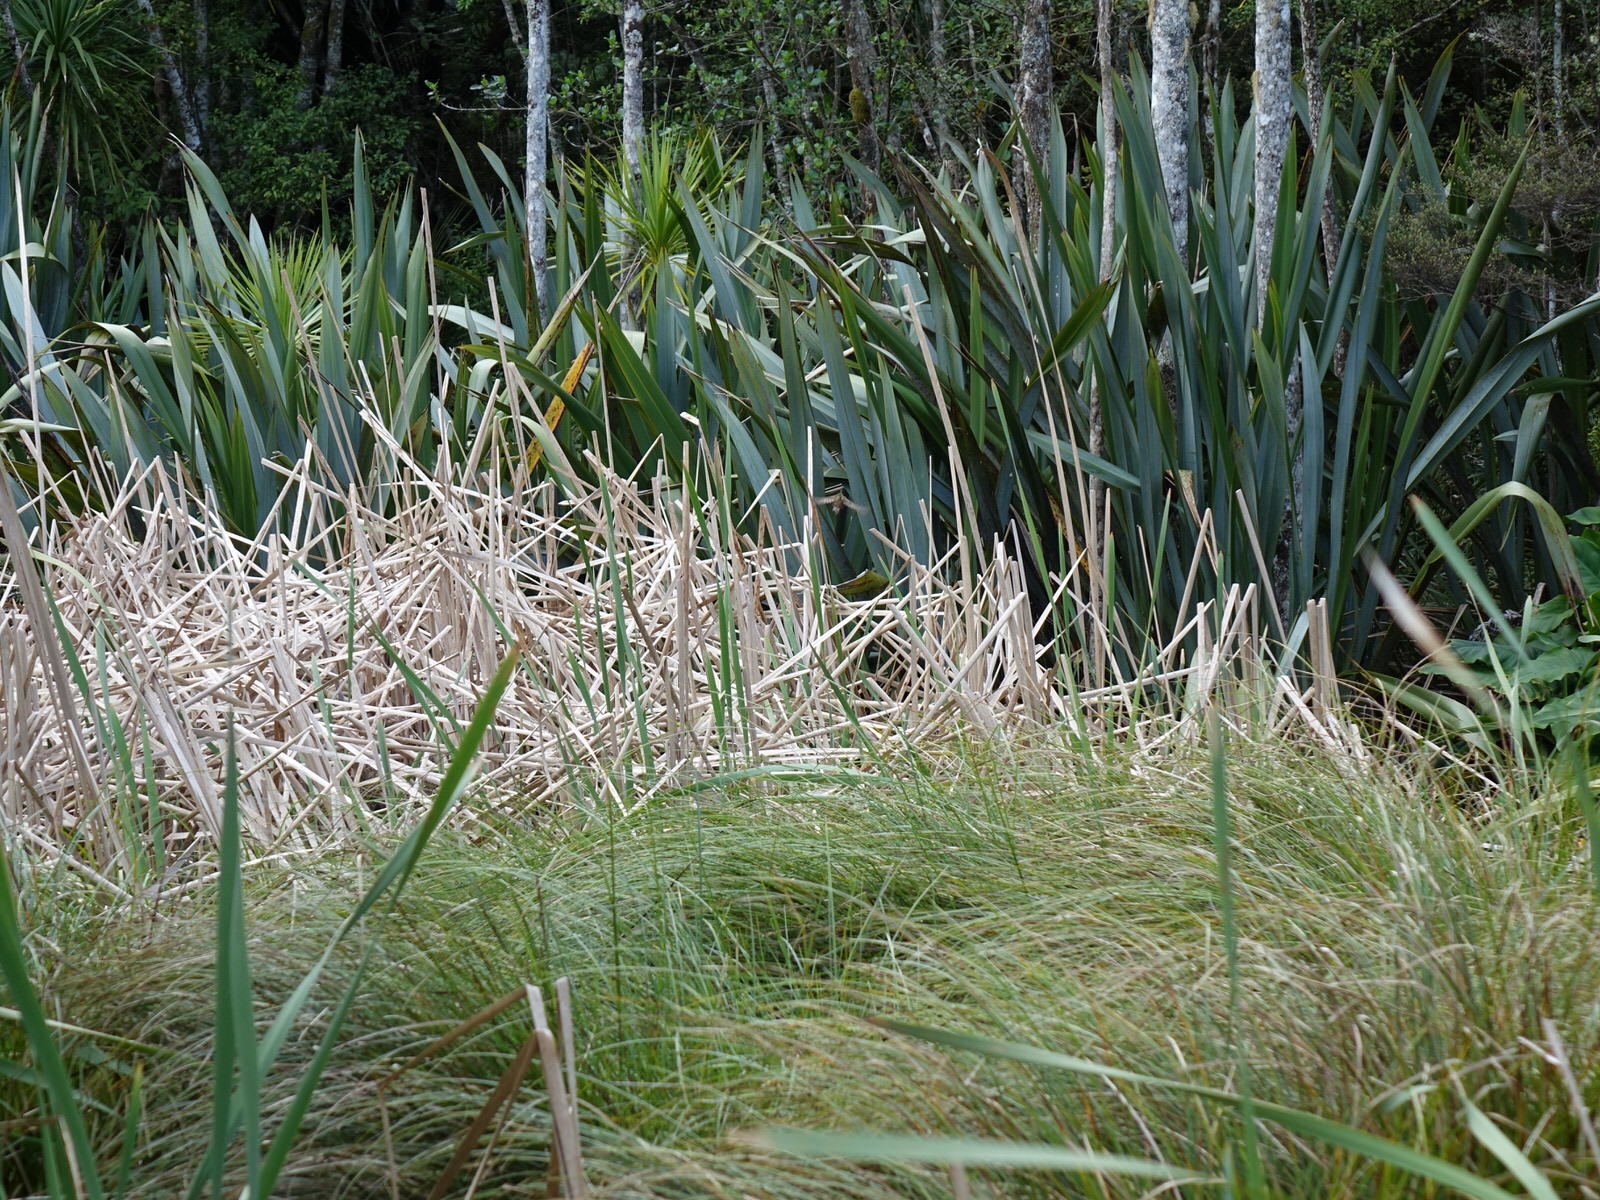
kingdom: Animalia
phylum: Chordata
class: Aves
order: Passeriformes
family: Locustellidae
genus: Megalurus
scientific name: Megalurus punctatus
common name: New zealand fernbird
